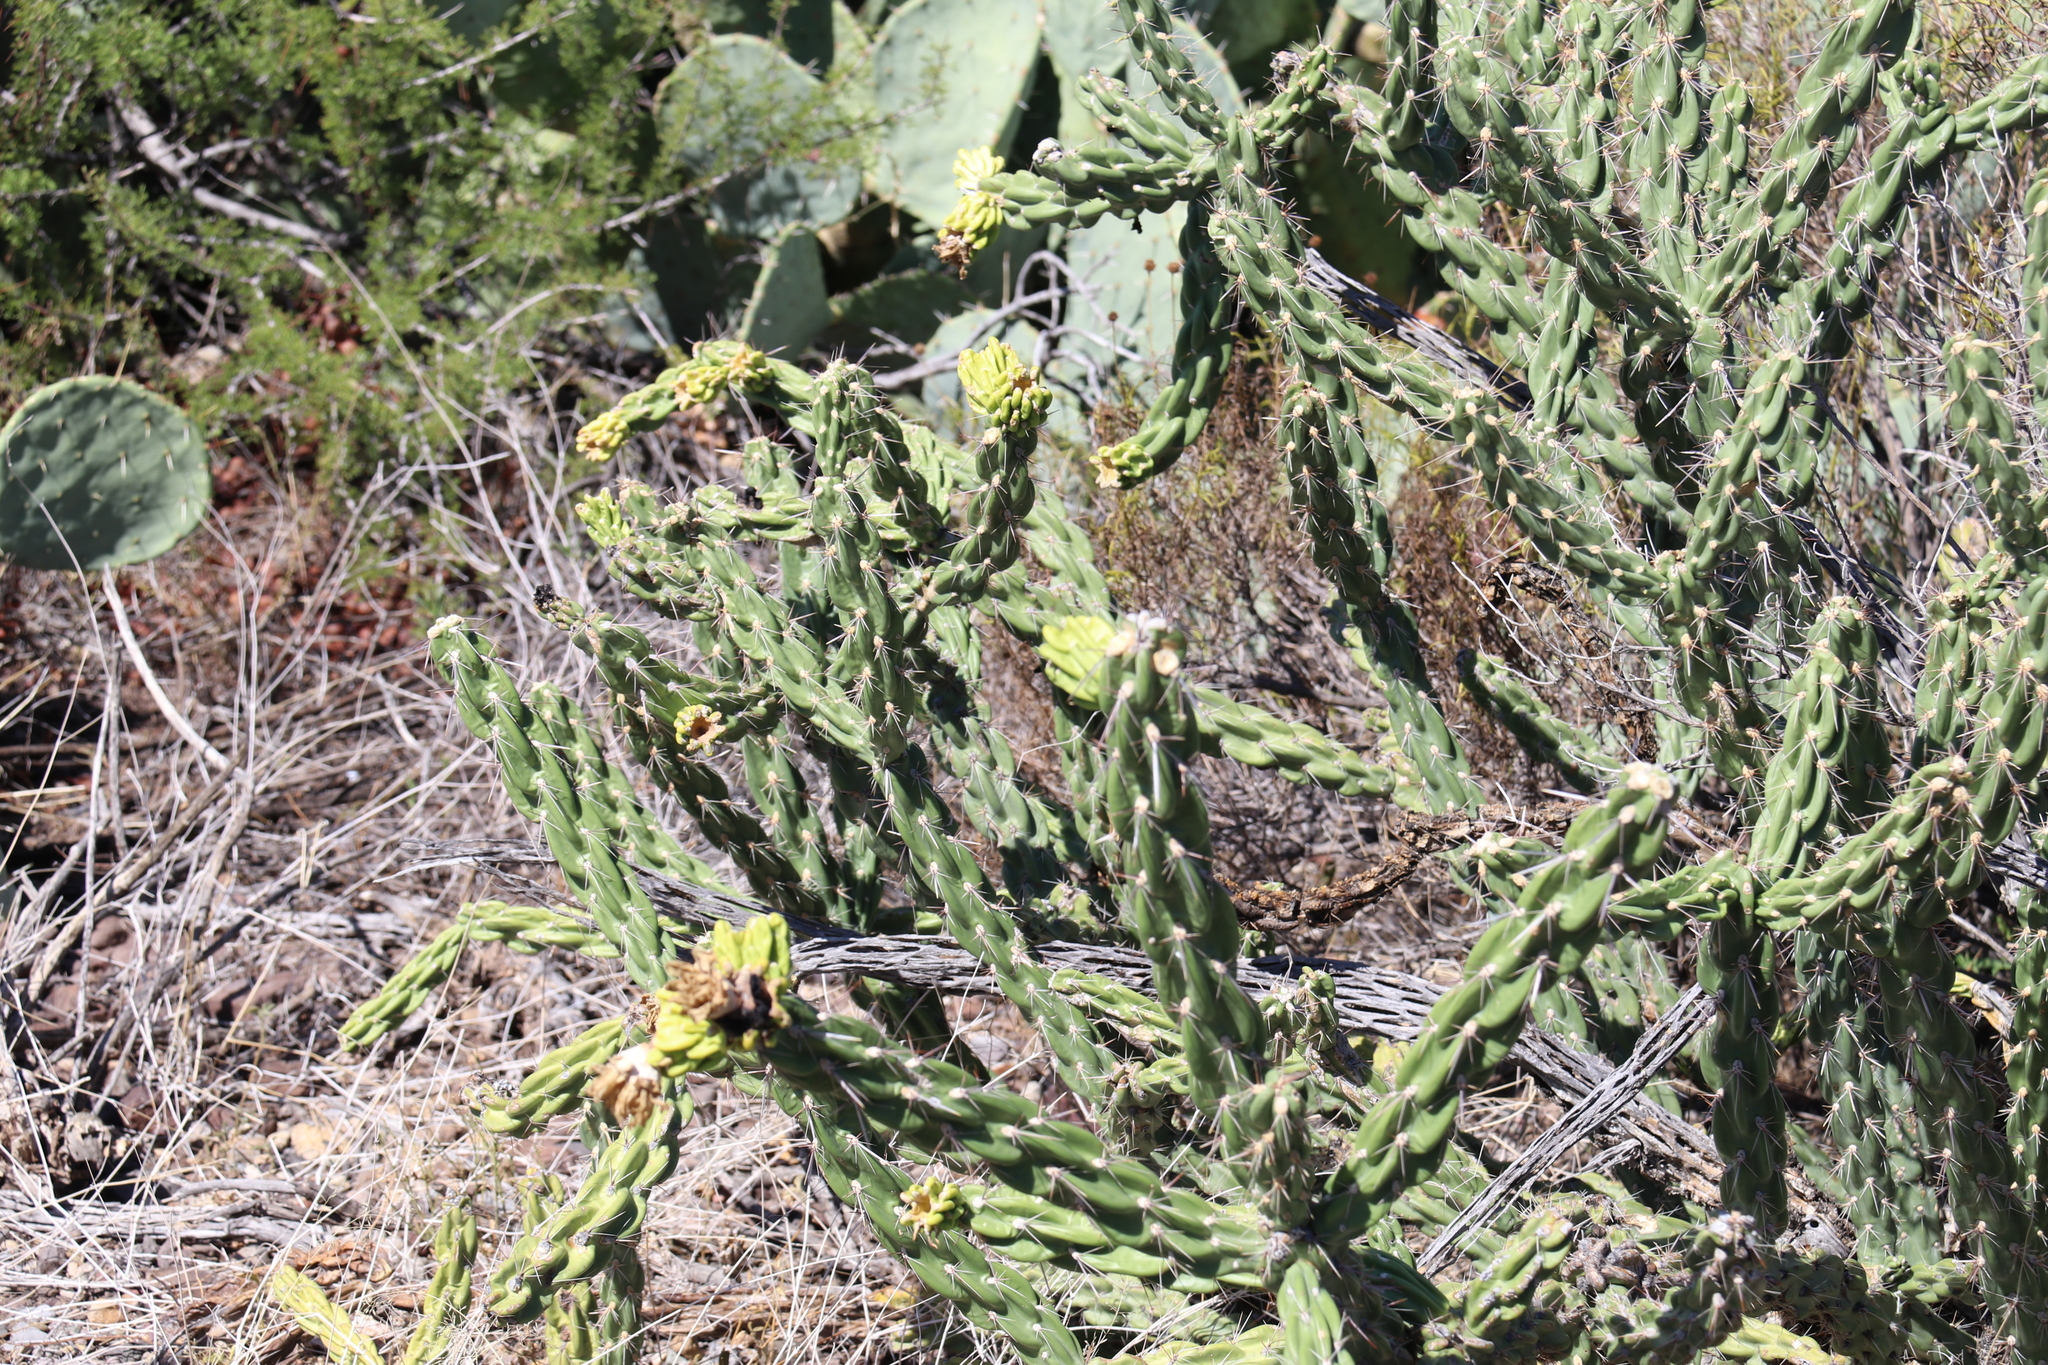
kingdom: Plantae
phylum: Tracheophyta
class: Magnoliopsida
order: Caryophyllales
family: Cactaceae
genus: Cylindropuntia
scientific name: Cylindropuntia imbricata
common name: Candelabrum cactus
